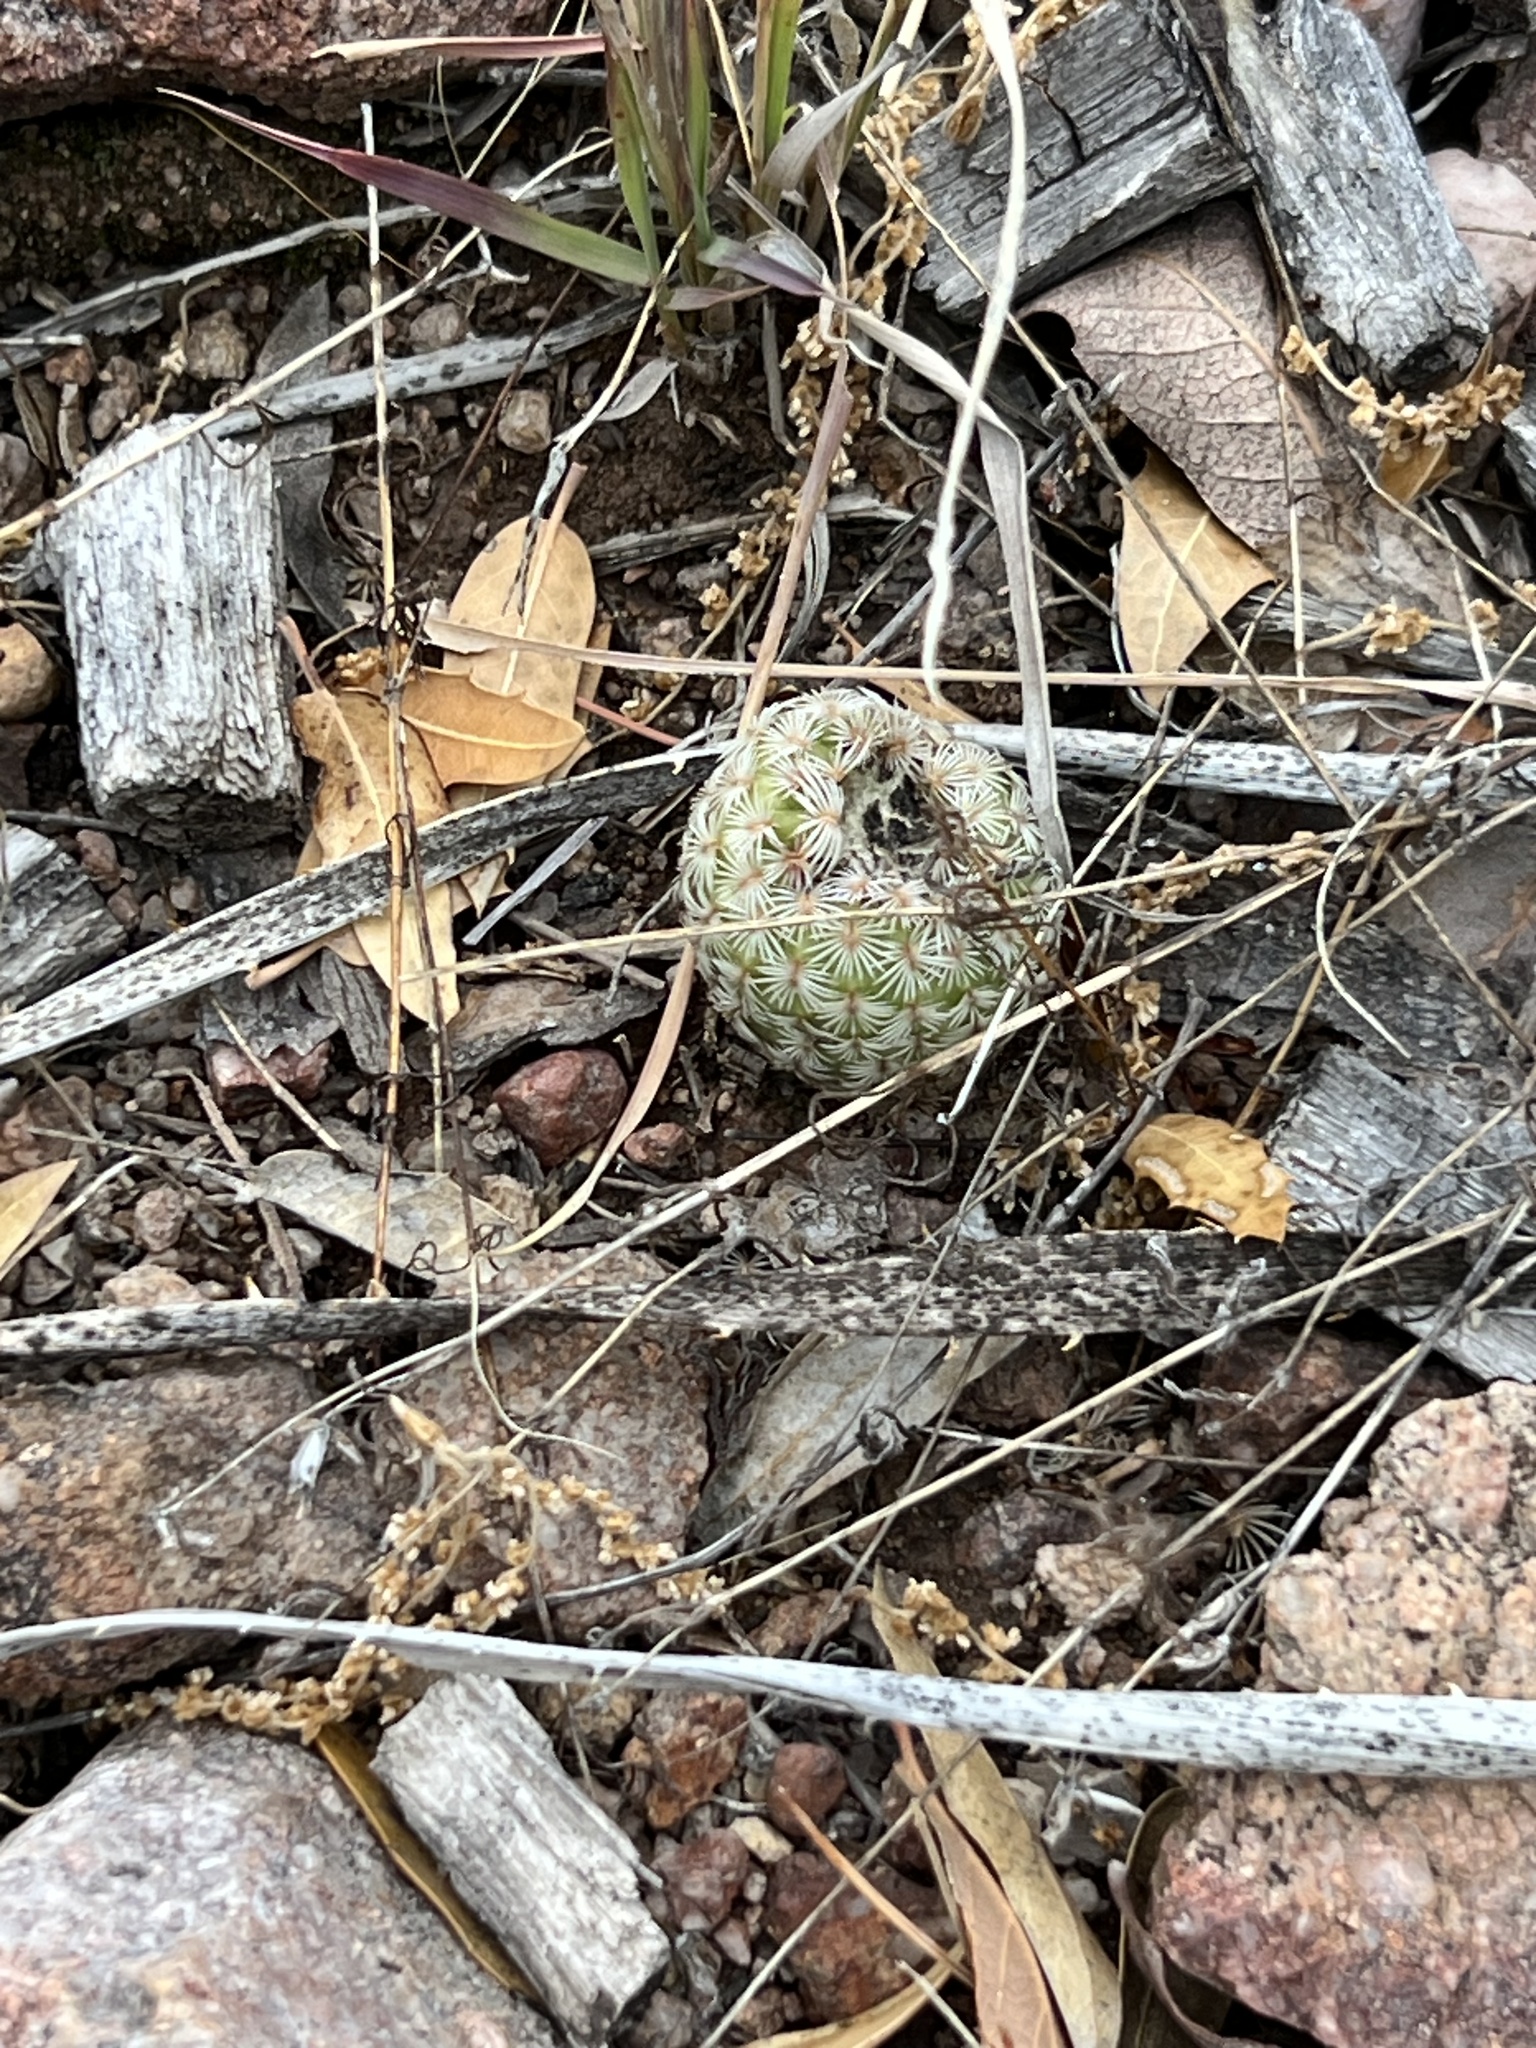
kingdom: Plantae
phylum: Tracheophyta
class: Magnoliopsida
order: Caryophyllales
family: Cactaceae
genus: Echinocereus
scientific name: Echinocereus rigidissimus
